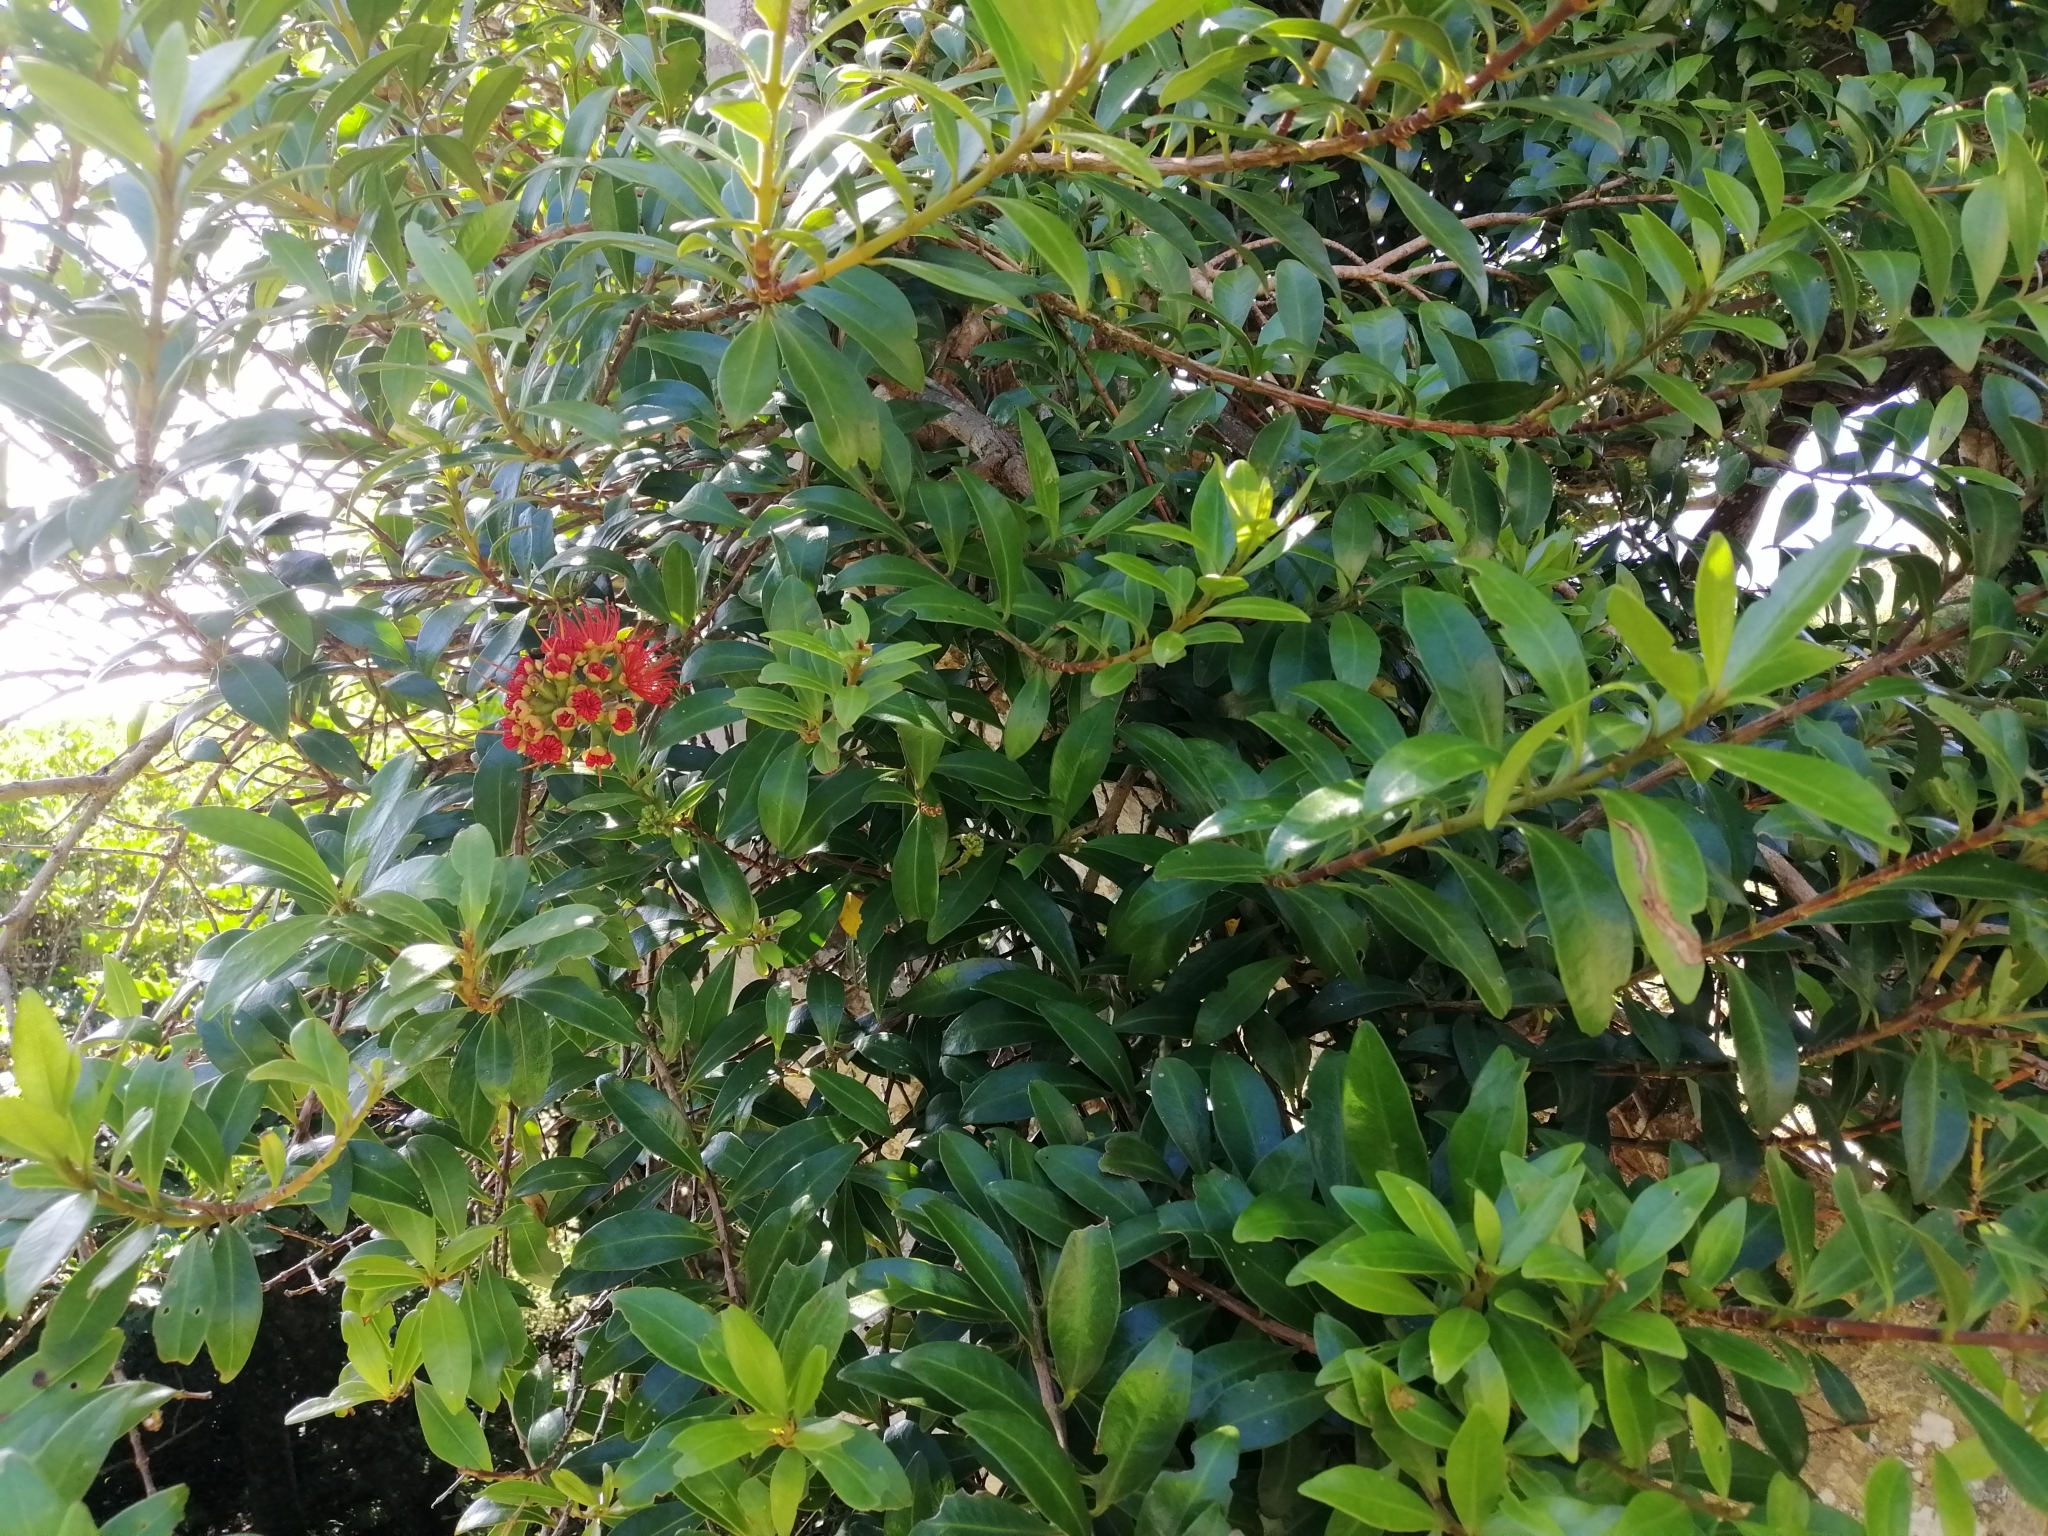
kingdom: Plantae
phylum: Tracheophyta
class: Magnoliopsida
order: Myrtales
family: Myrtaceae
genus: Metrosideros
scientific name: Metrosideros fulgens
